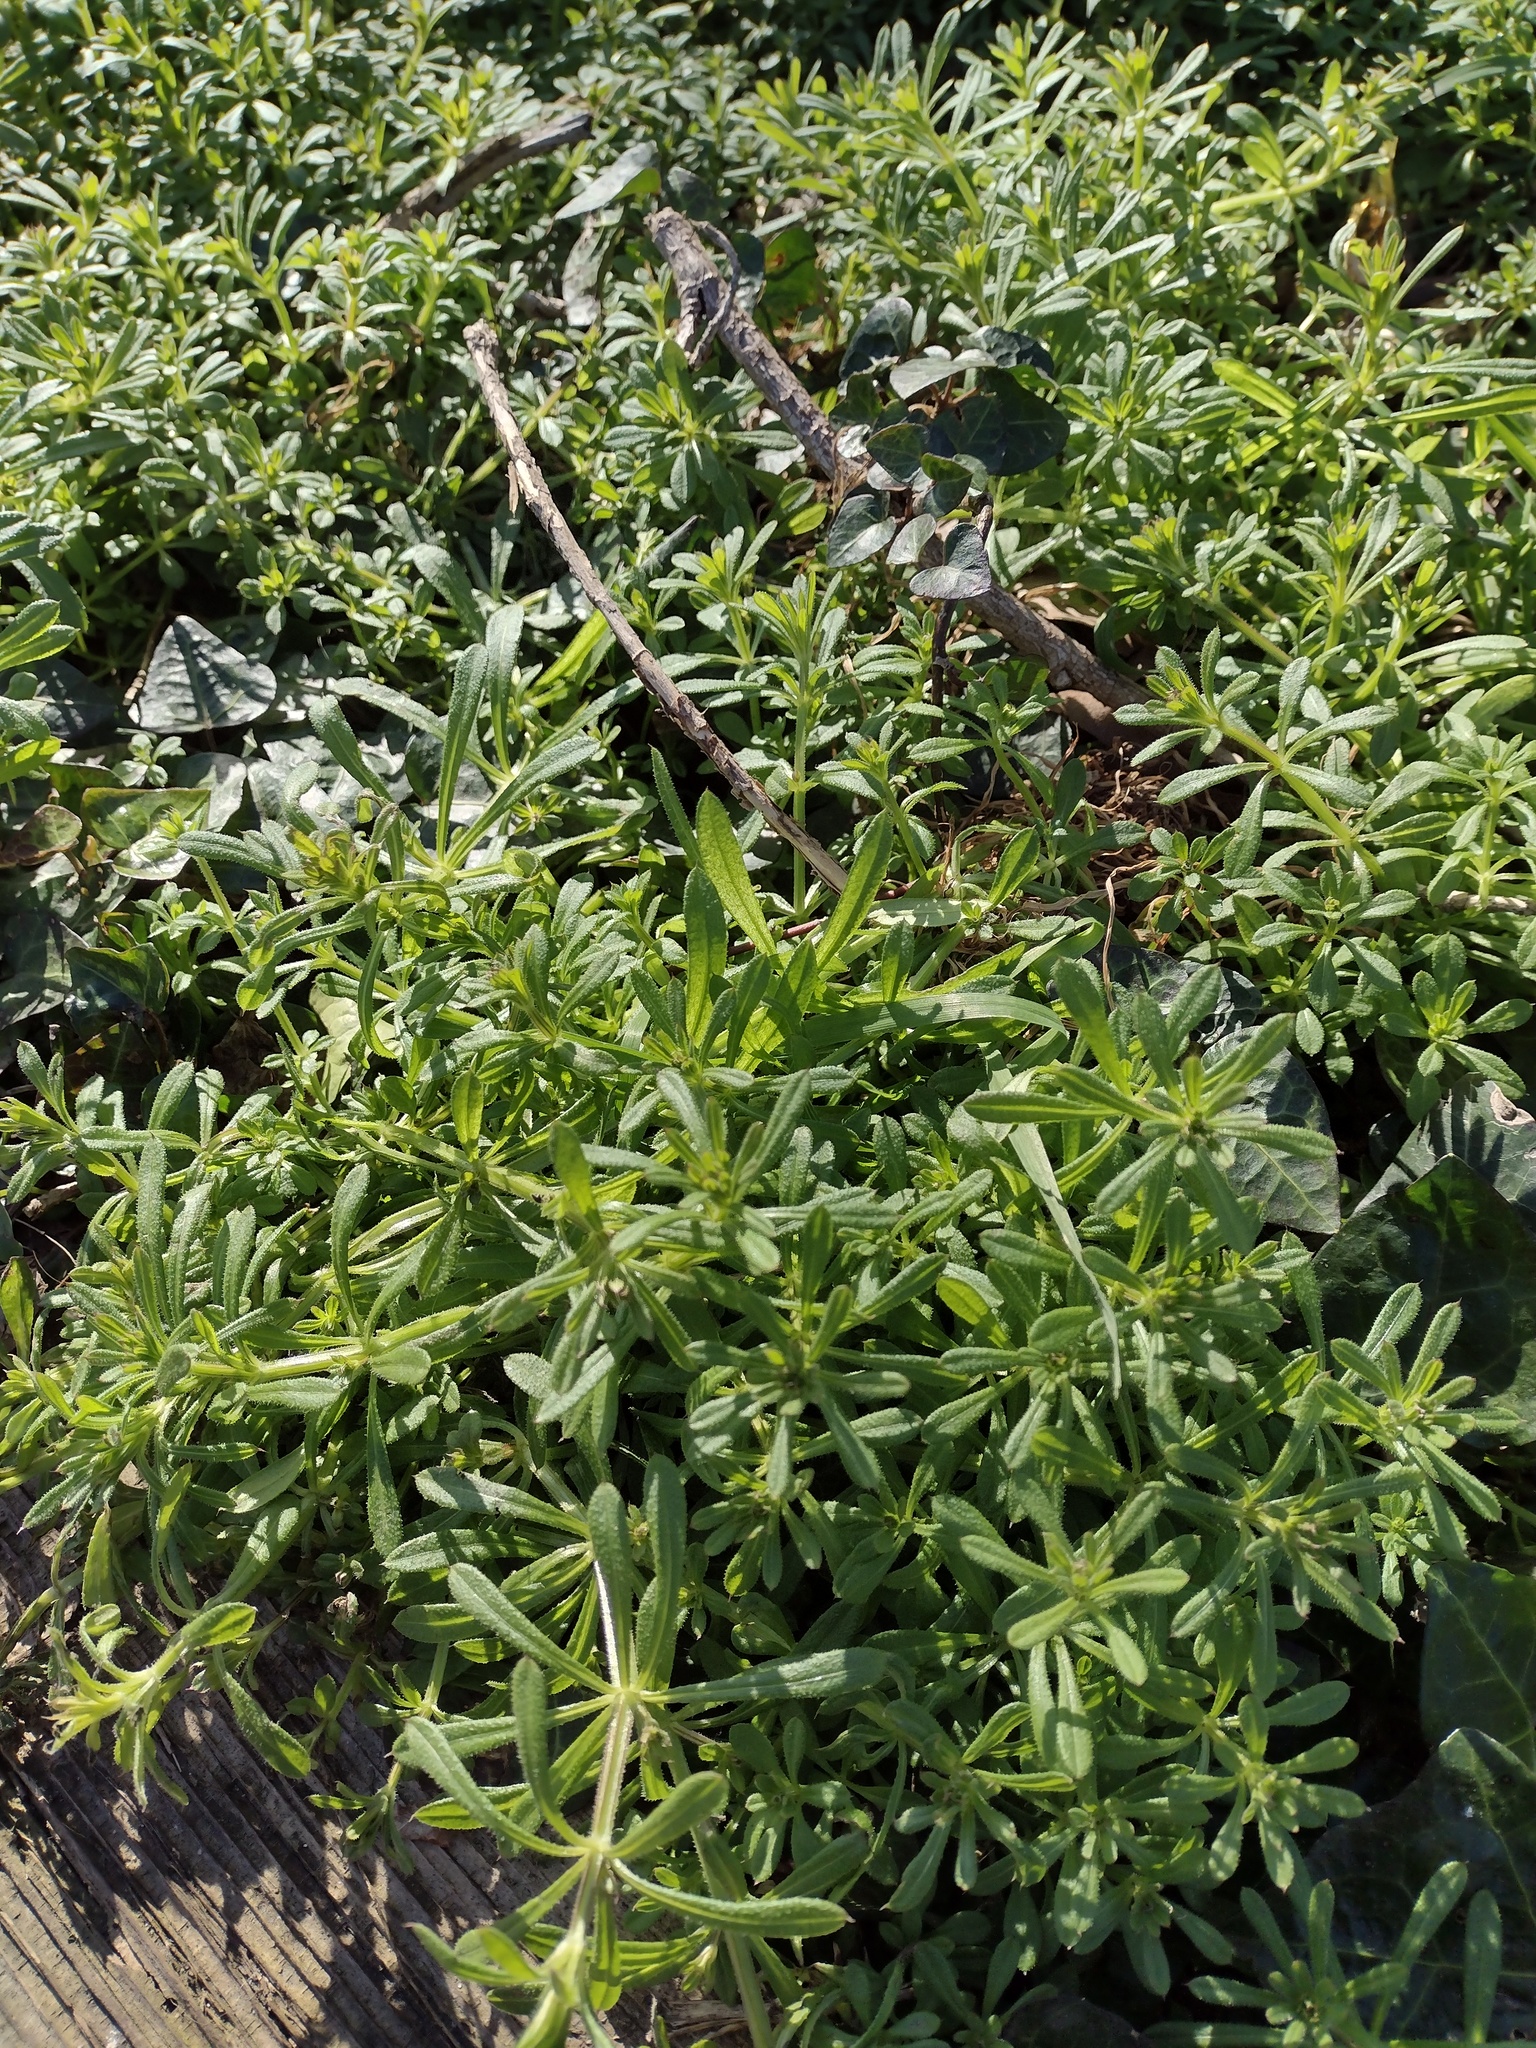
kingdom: Plantae
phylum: Tracheophyta
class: Magnoliopsida
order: Gentianales
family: Rubiaceae
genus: Galium
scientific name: Galium aparine
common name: Cleavers
